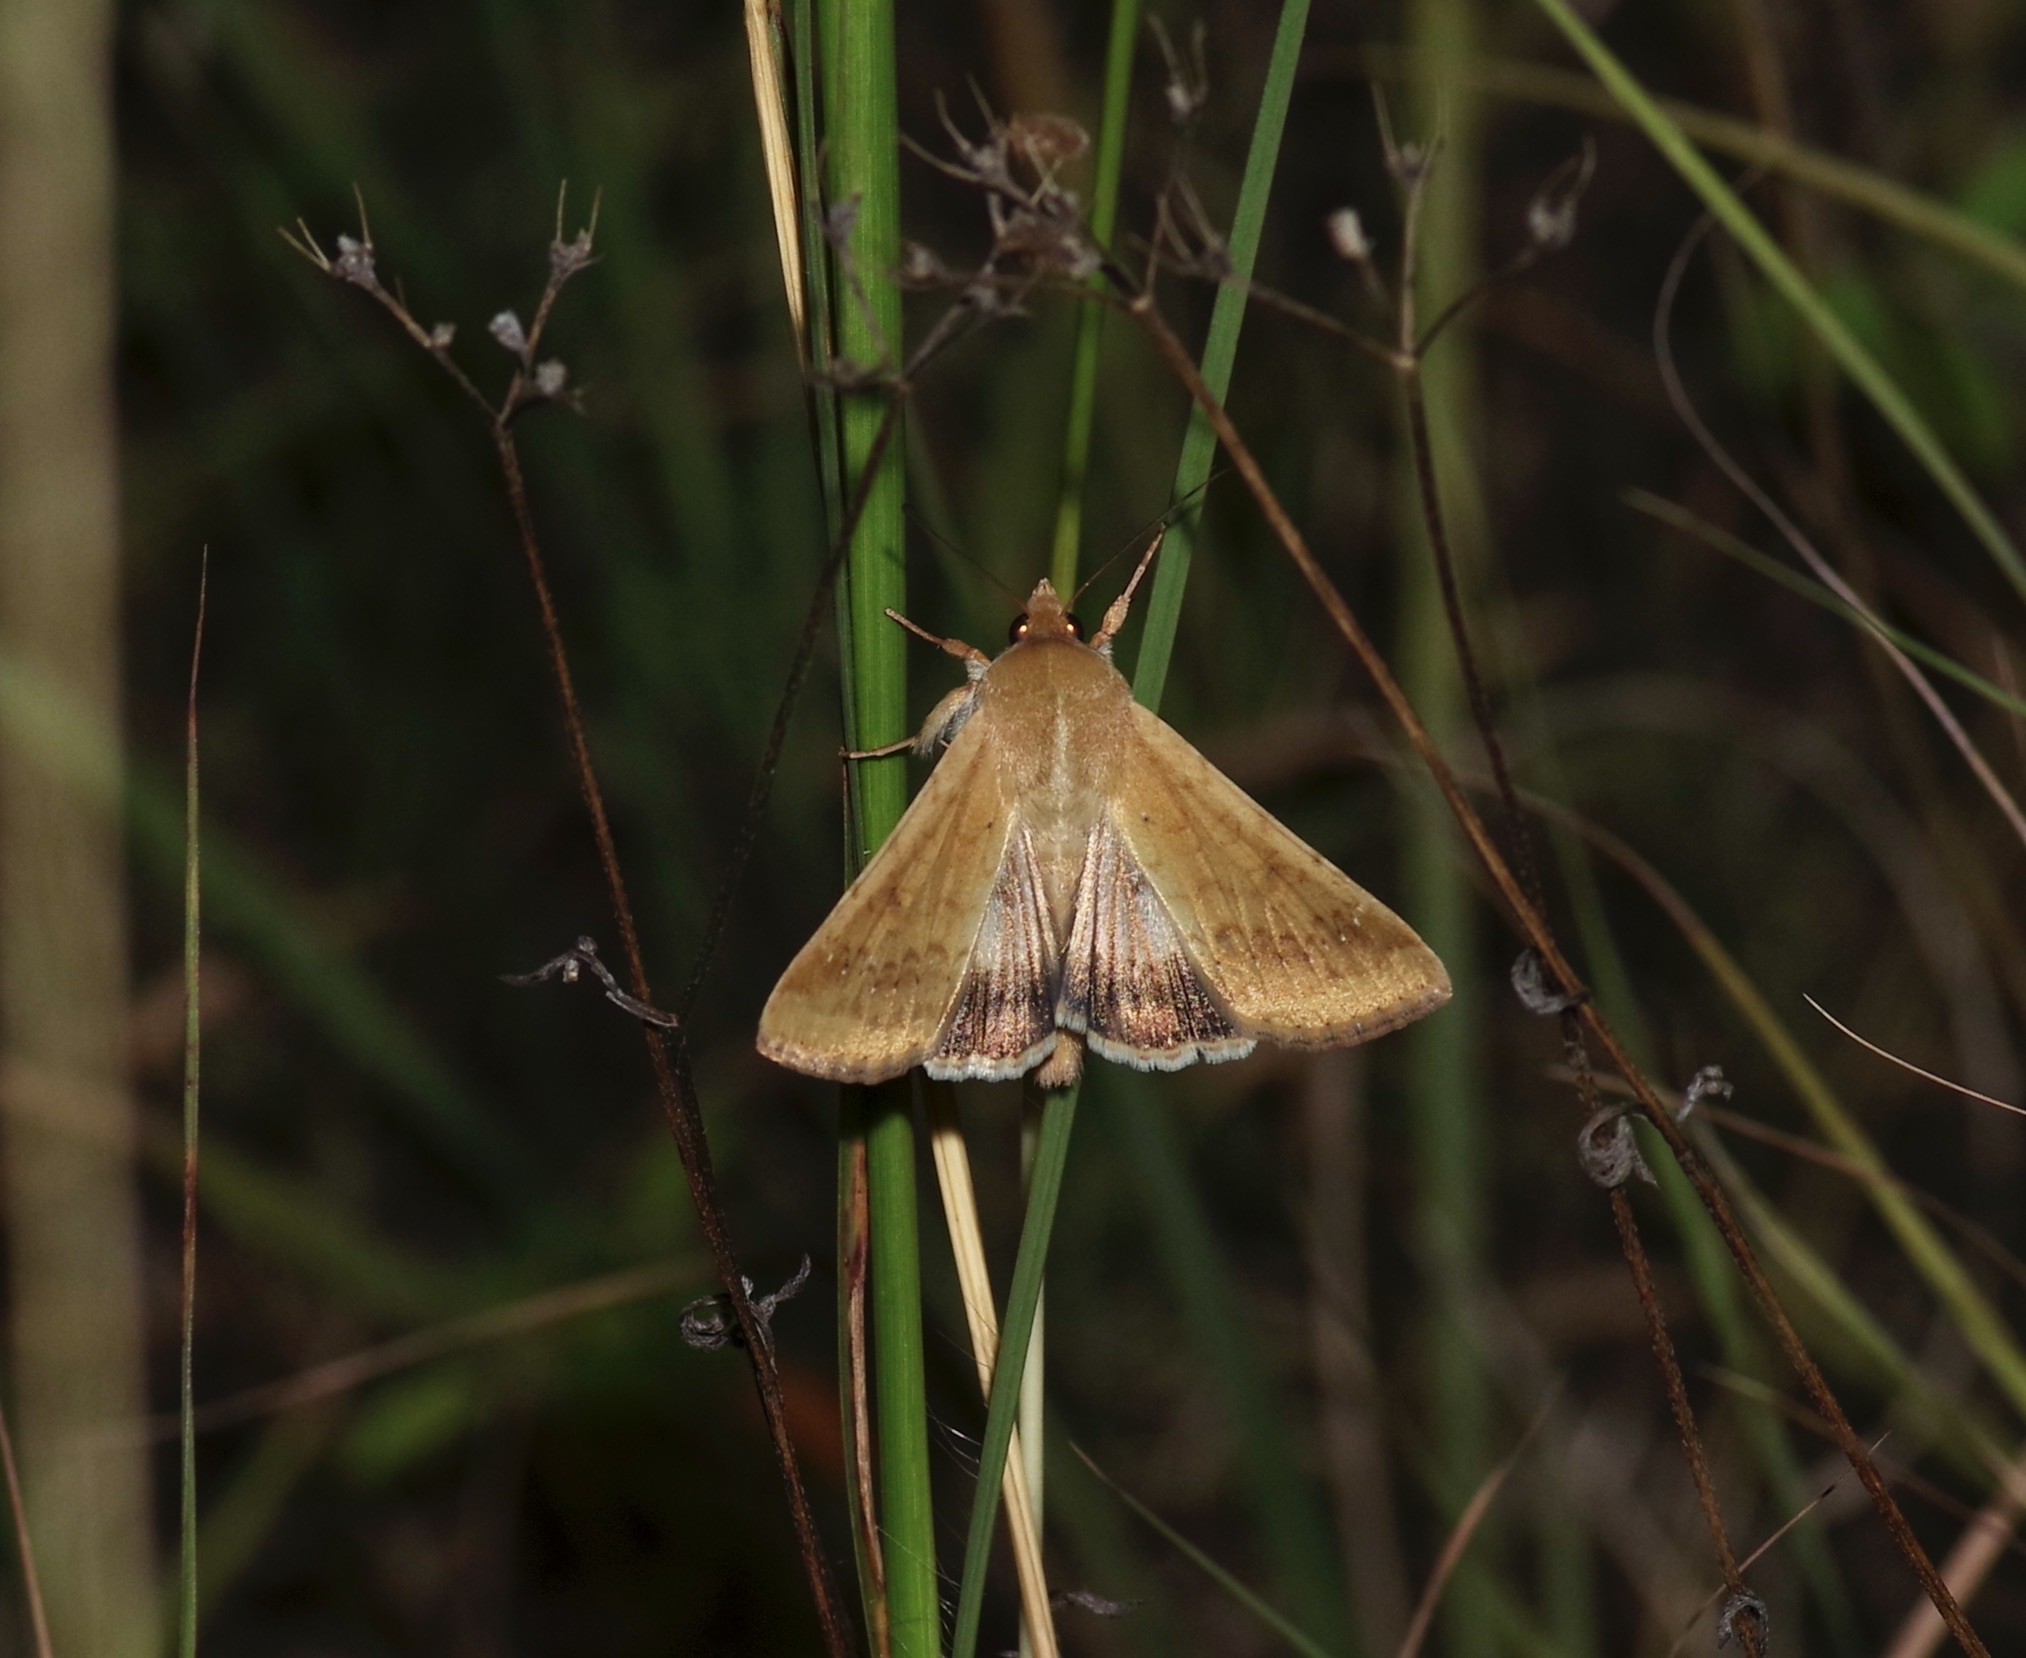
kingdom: Animalia
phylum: Arthropoda
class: Insecta
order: Lepidoptera
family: Noctuidae
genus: Helicoverpa
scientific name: Helicoverpa zea
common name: Bollworm
